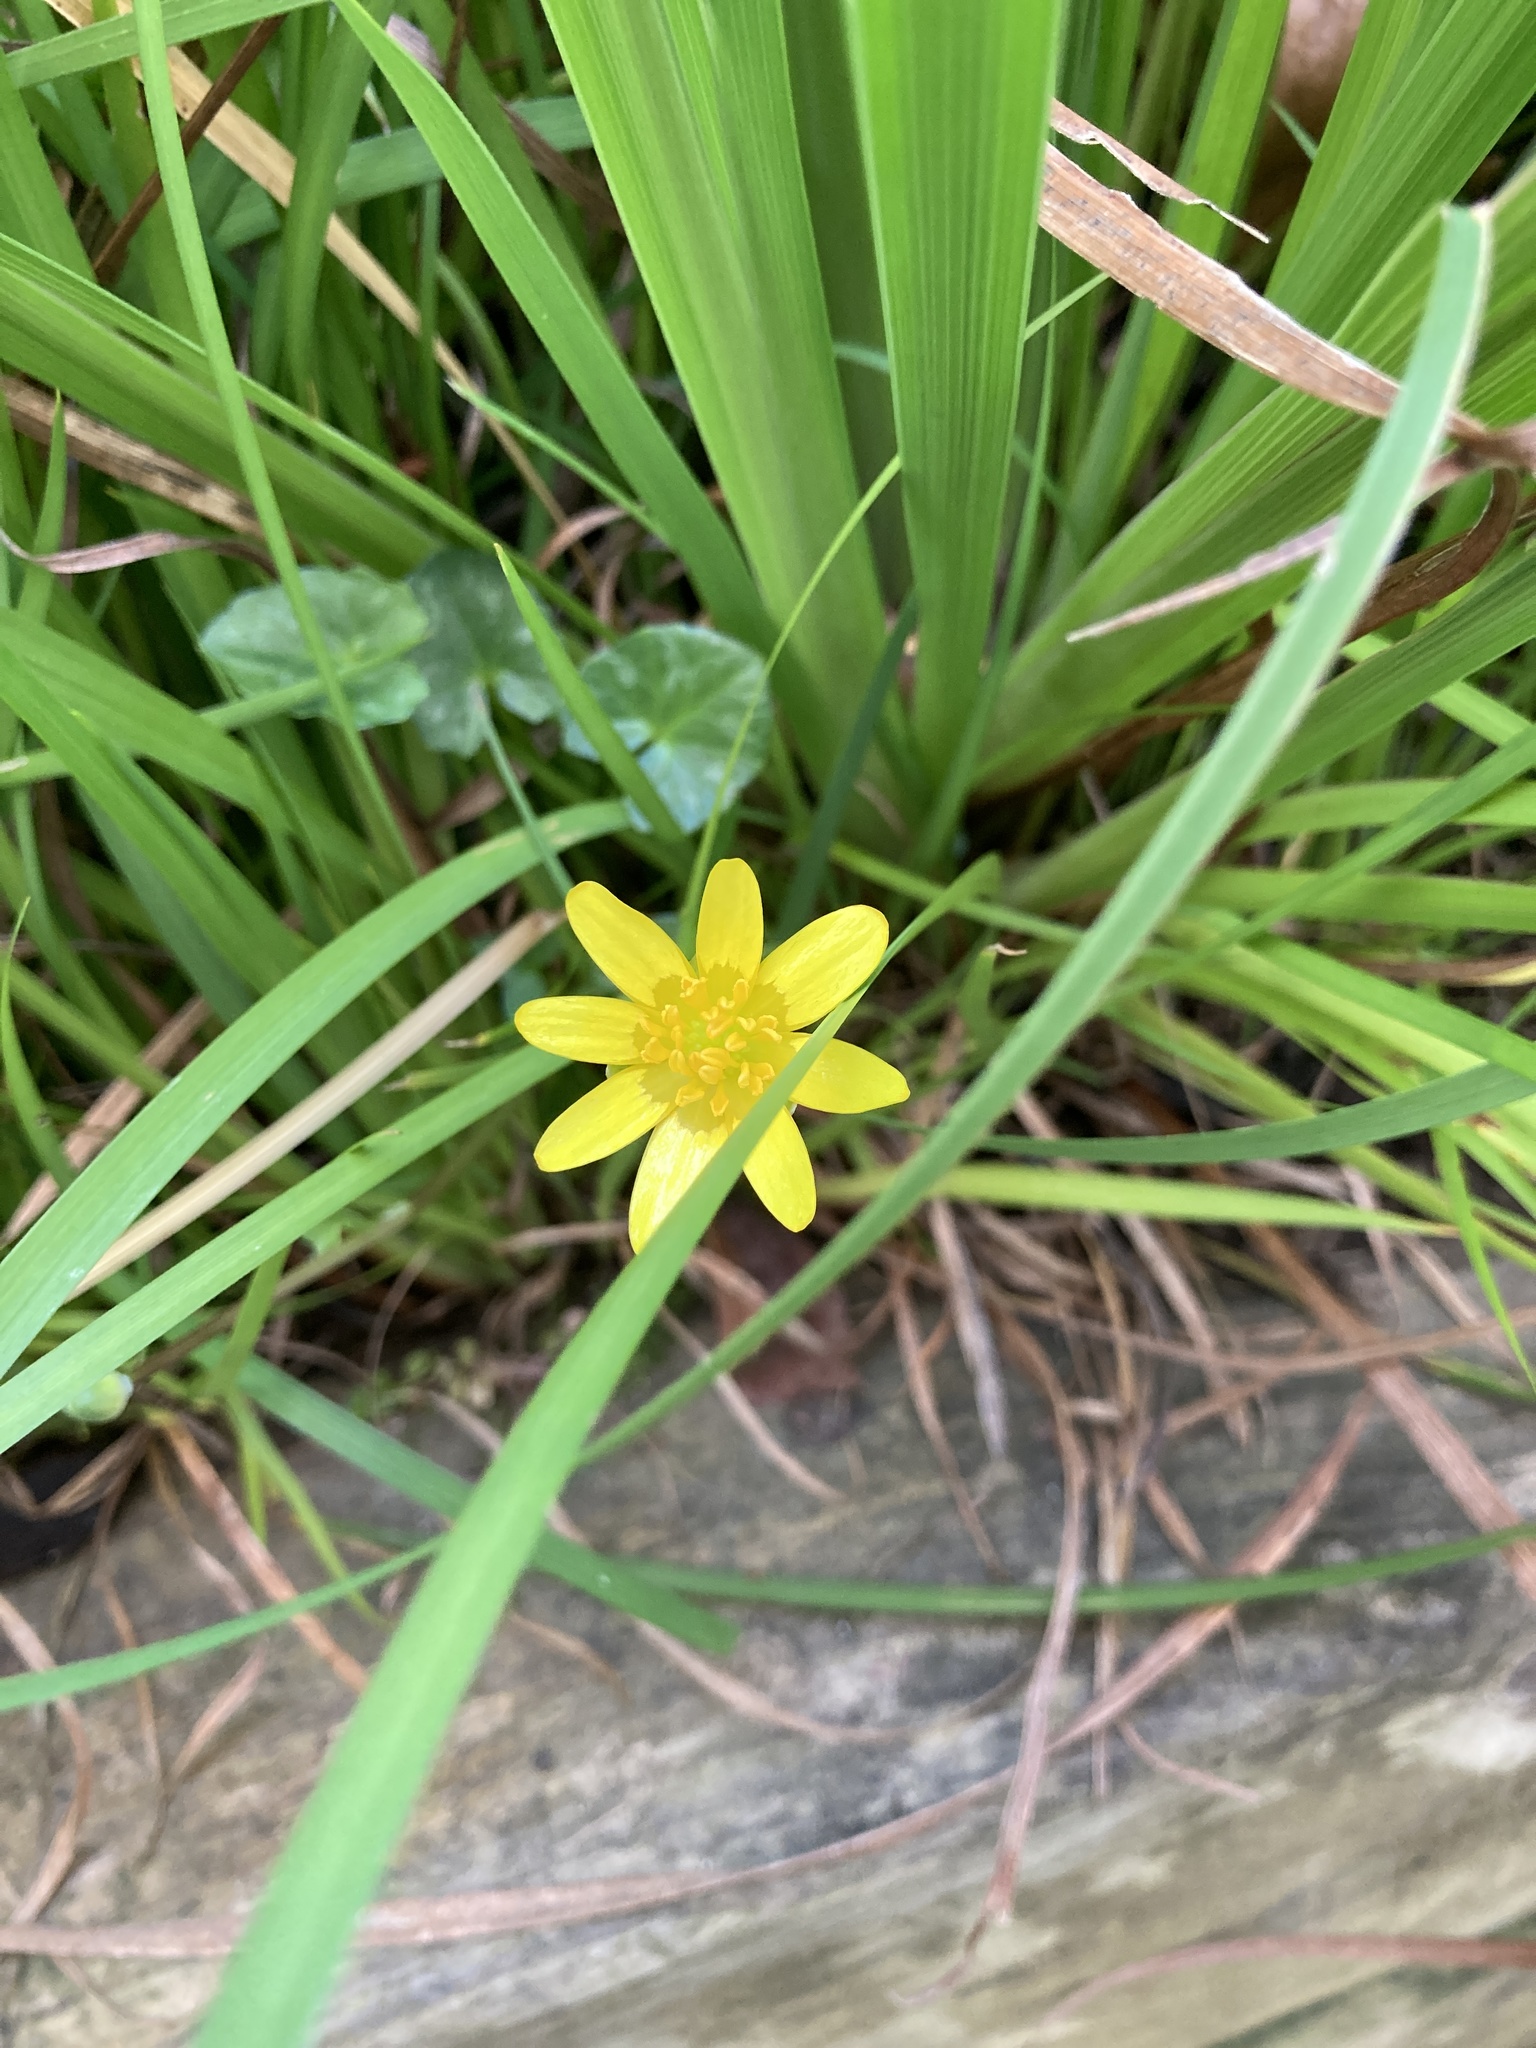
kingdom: Plantae
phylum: Tracheophyta
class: Magnoliopsida
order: Ranunculales
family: Ranunculaceae
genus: Ficaria
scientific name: Ficaria verna
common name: Lesser celandine
